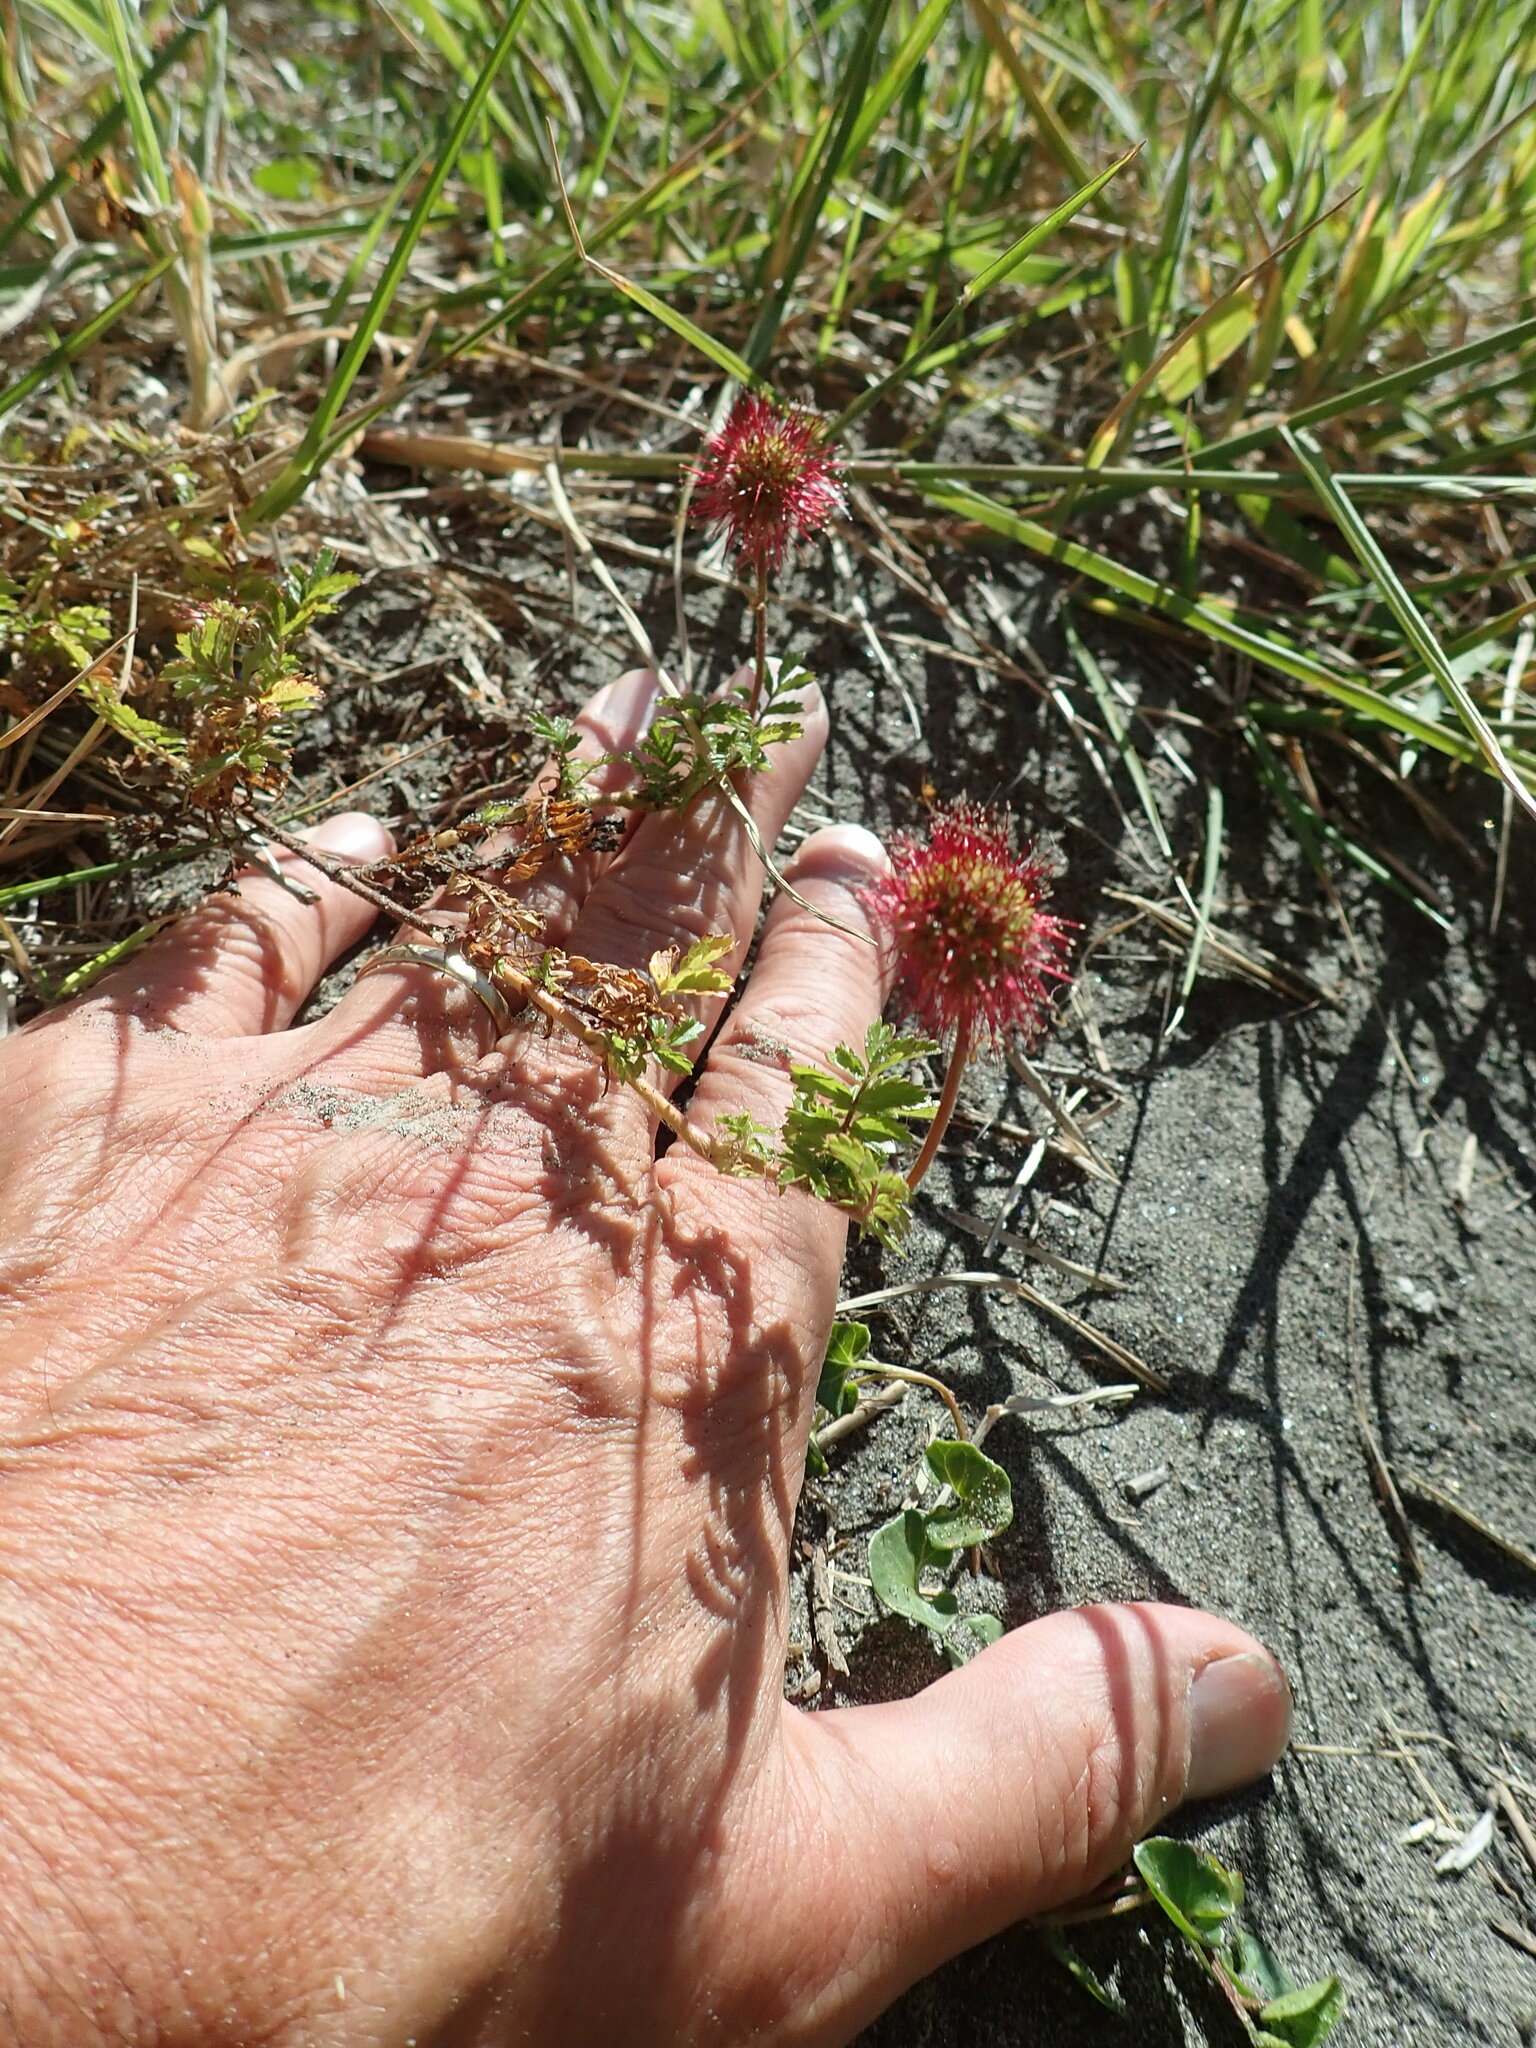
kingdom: Plantae
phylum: Tracheophyta
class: Magnoliopsida
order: Rosales
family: Rosaceae
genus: Acaena
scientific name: Acaena novae-zelandiae
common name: Pirri-pirri-bur
